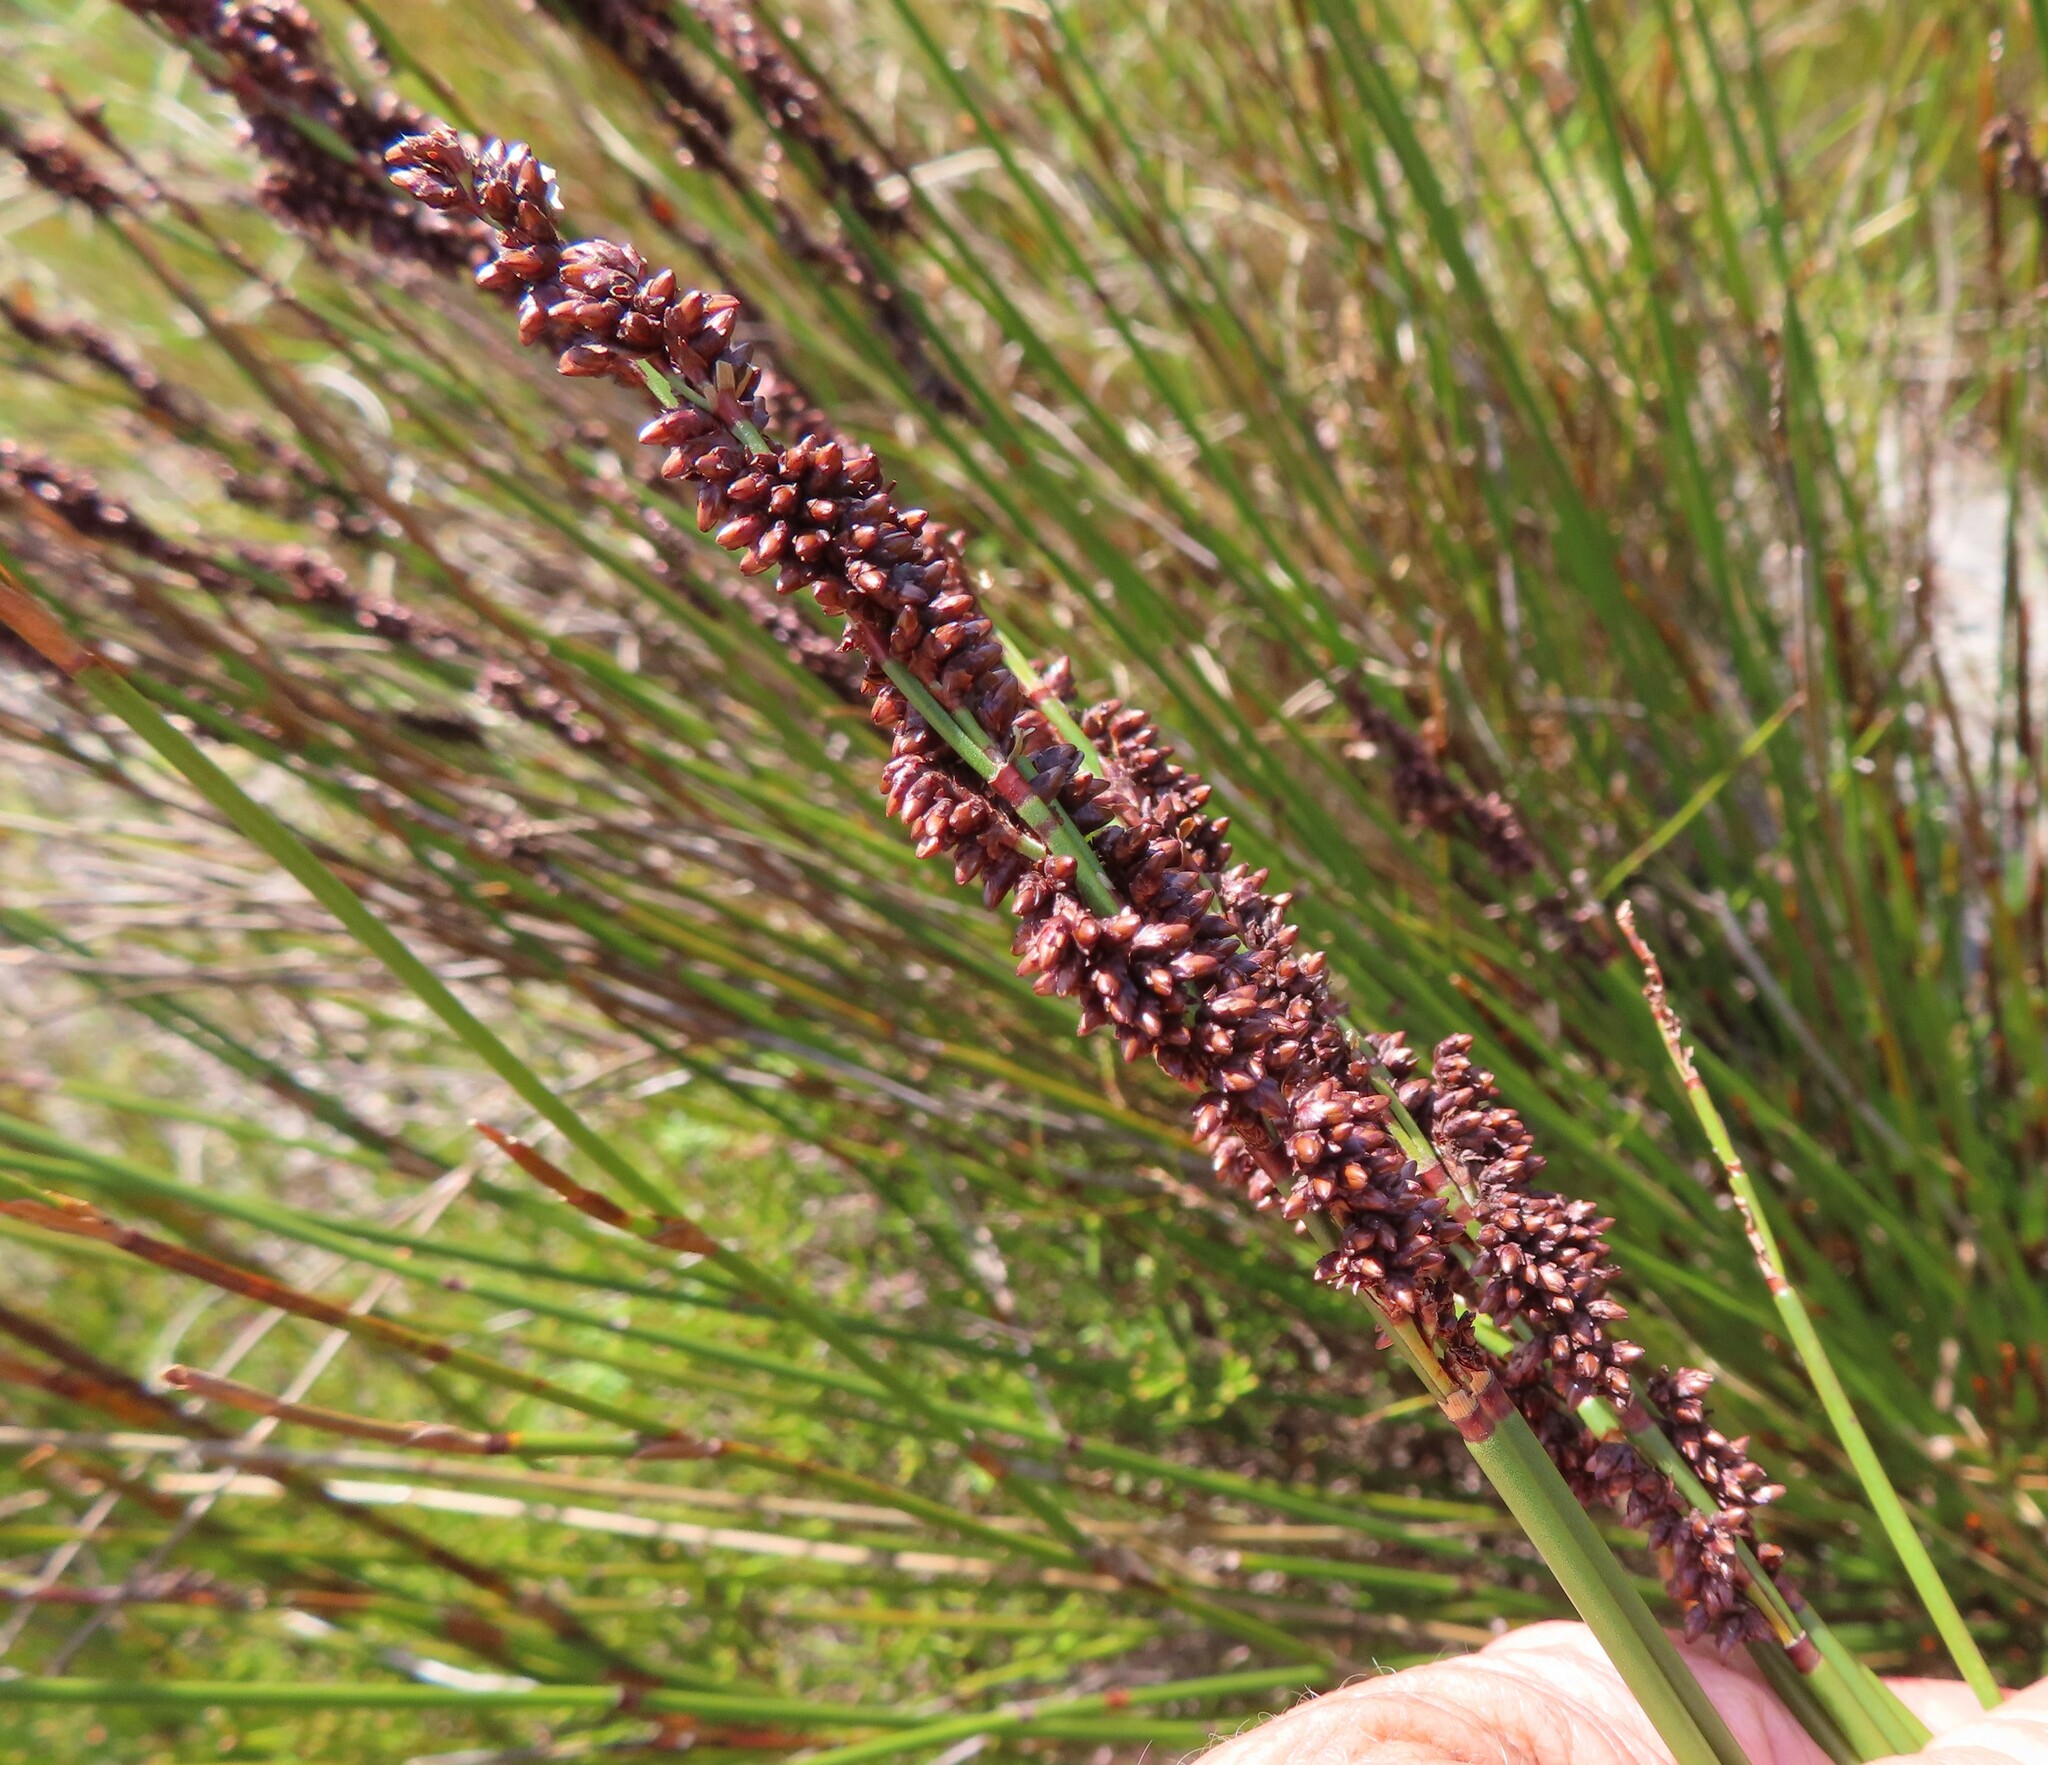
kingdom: Plantae
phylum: Tracheophyta
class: Liliopsida
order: Poales
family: Restionaceae
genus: Elegia
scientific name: Elegia nuda
